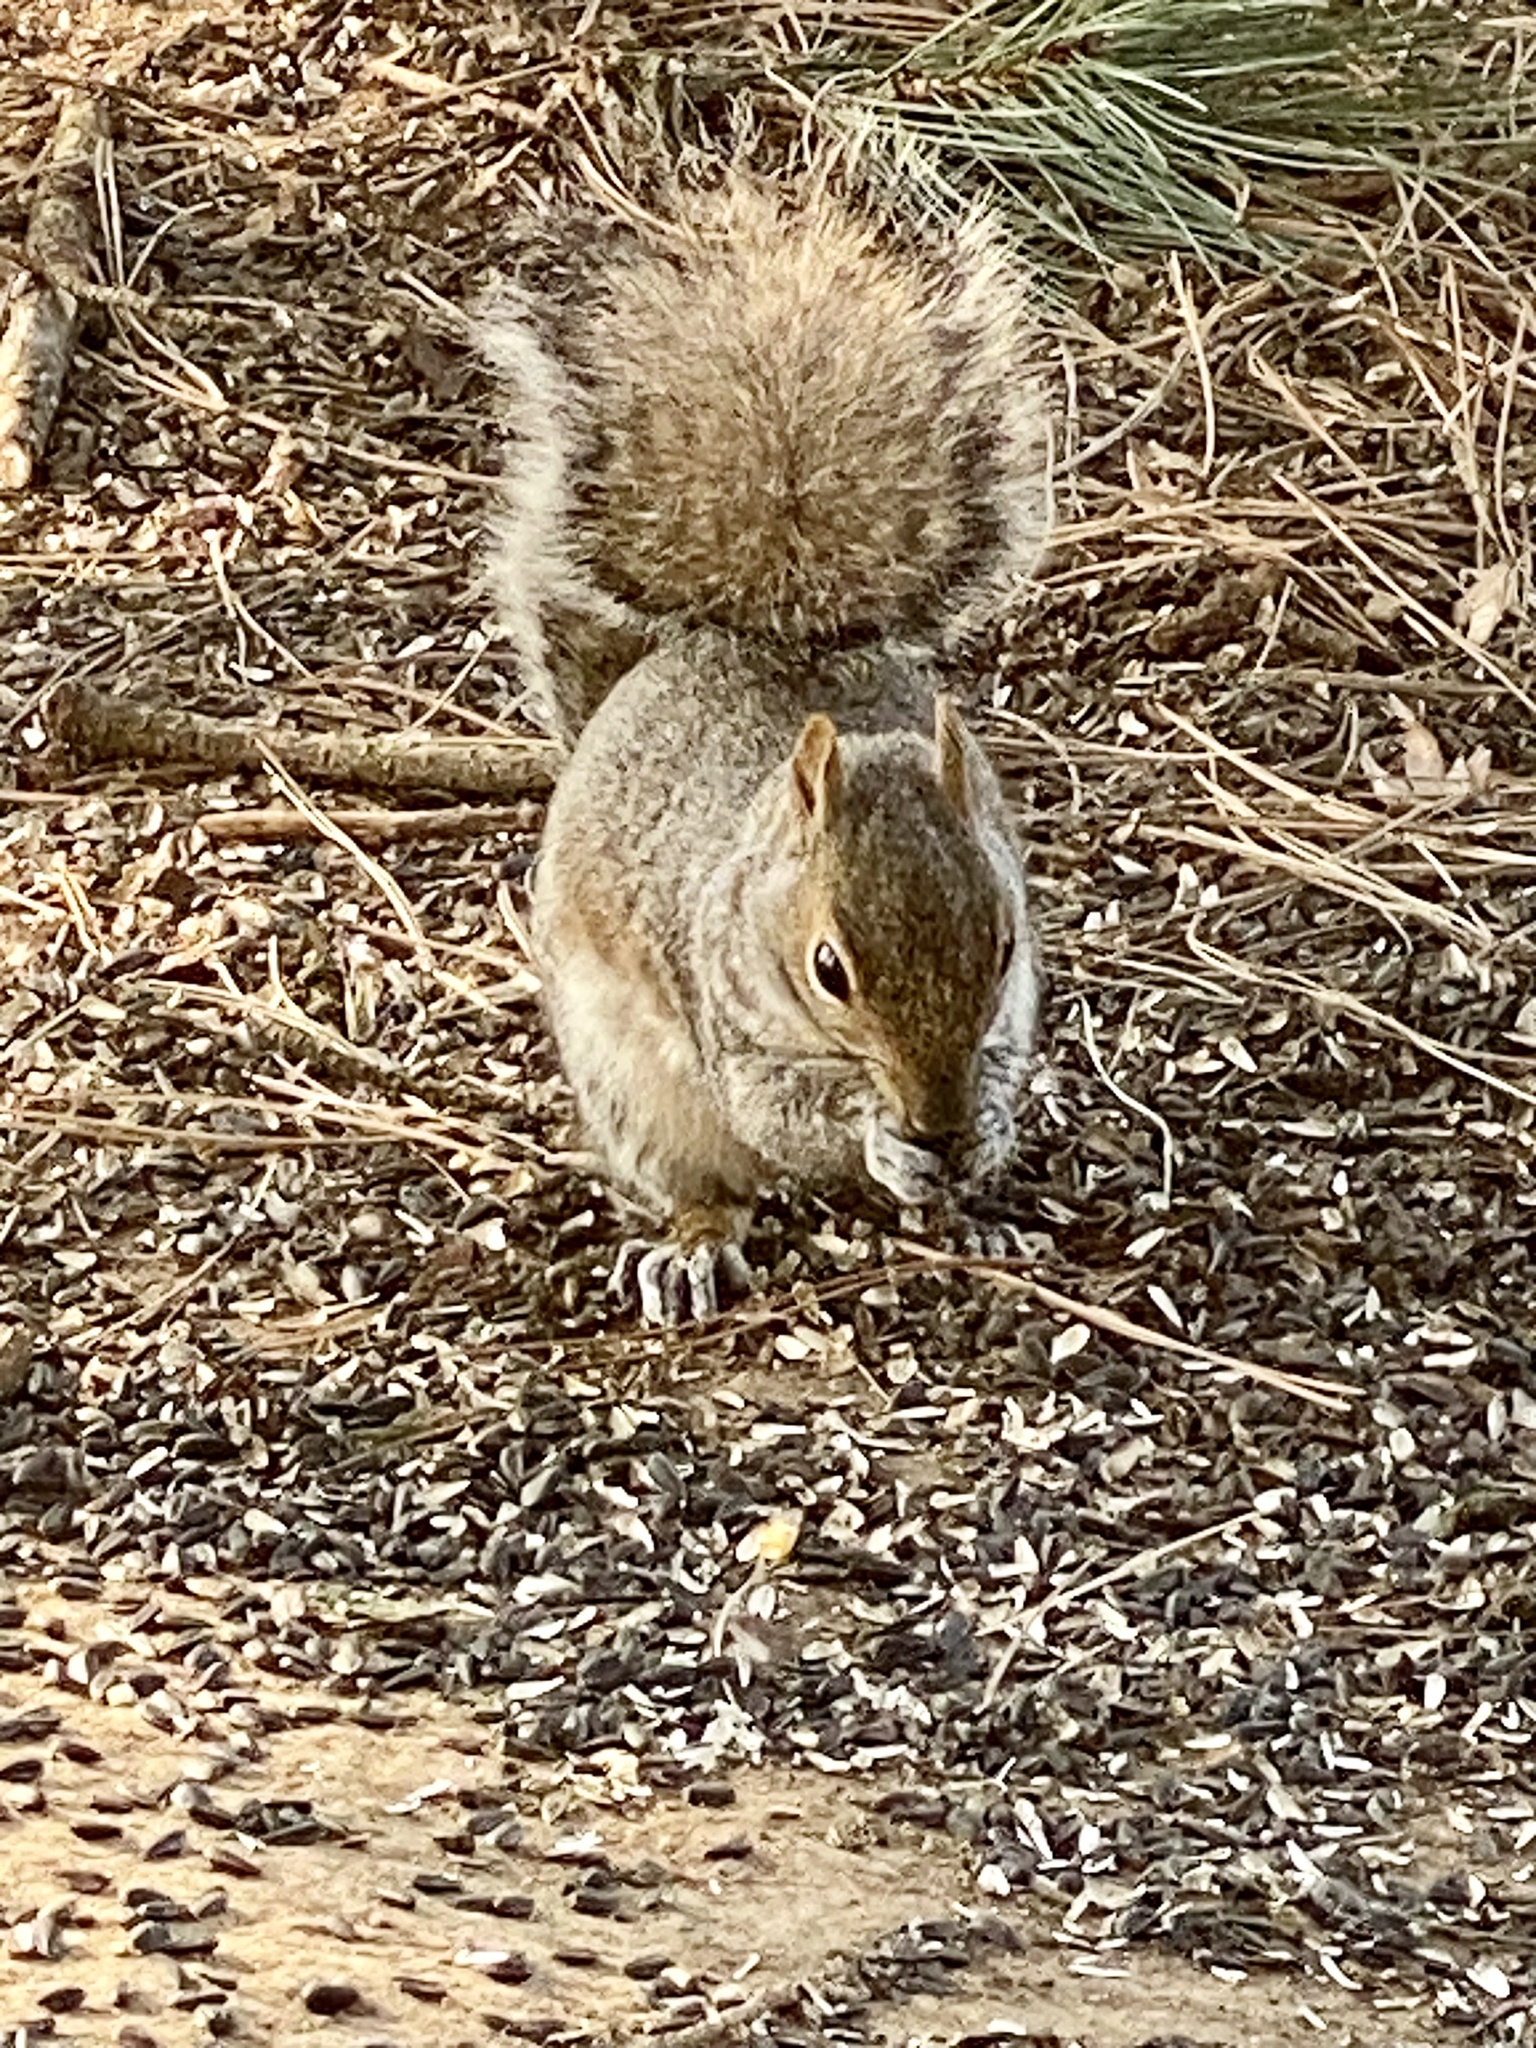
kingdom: Animalia
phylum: Chordata
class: Mammalia
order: Rodentia
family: Sciuridae
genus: Sciurus
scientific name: Sciurus carolinensis
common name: Eastern gray squirrel
